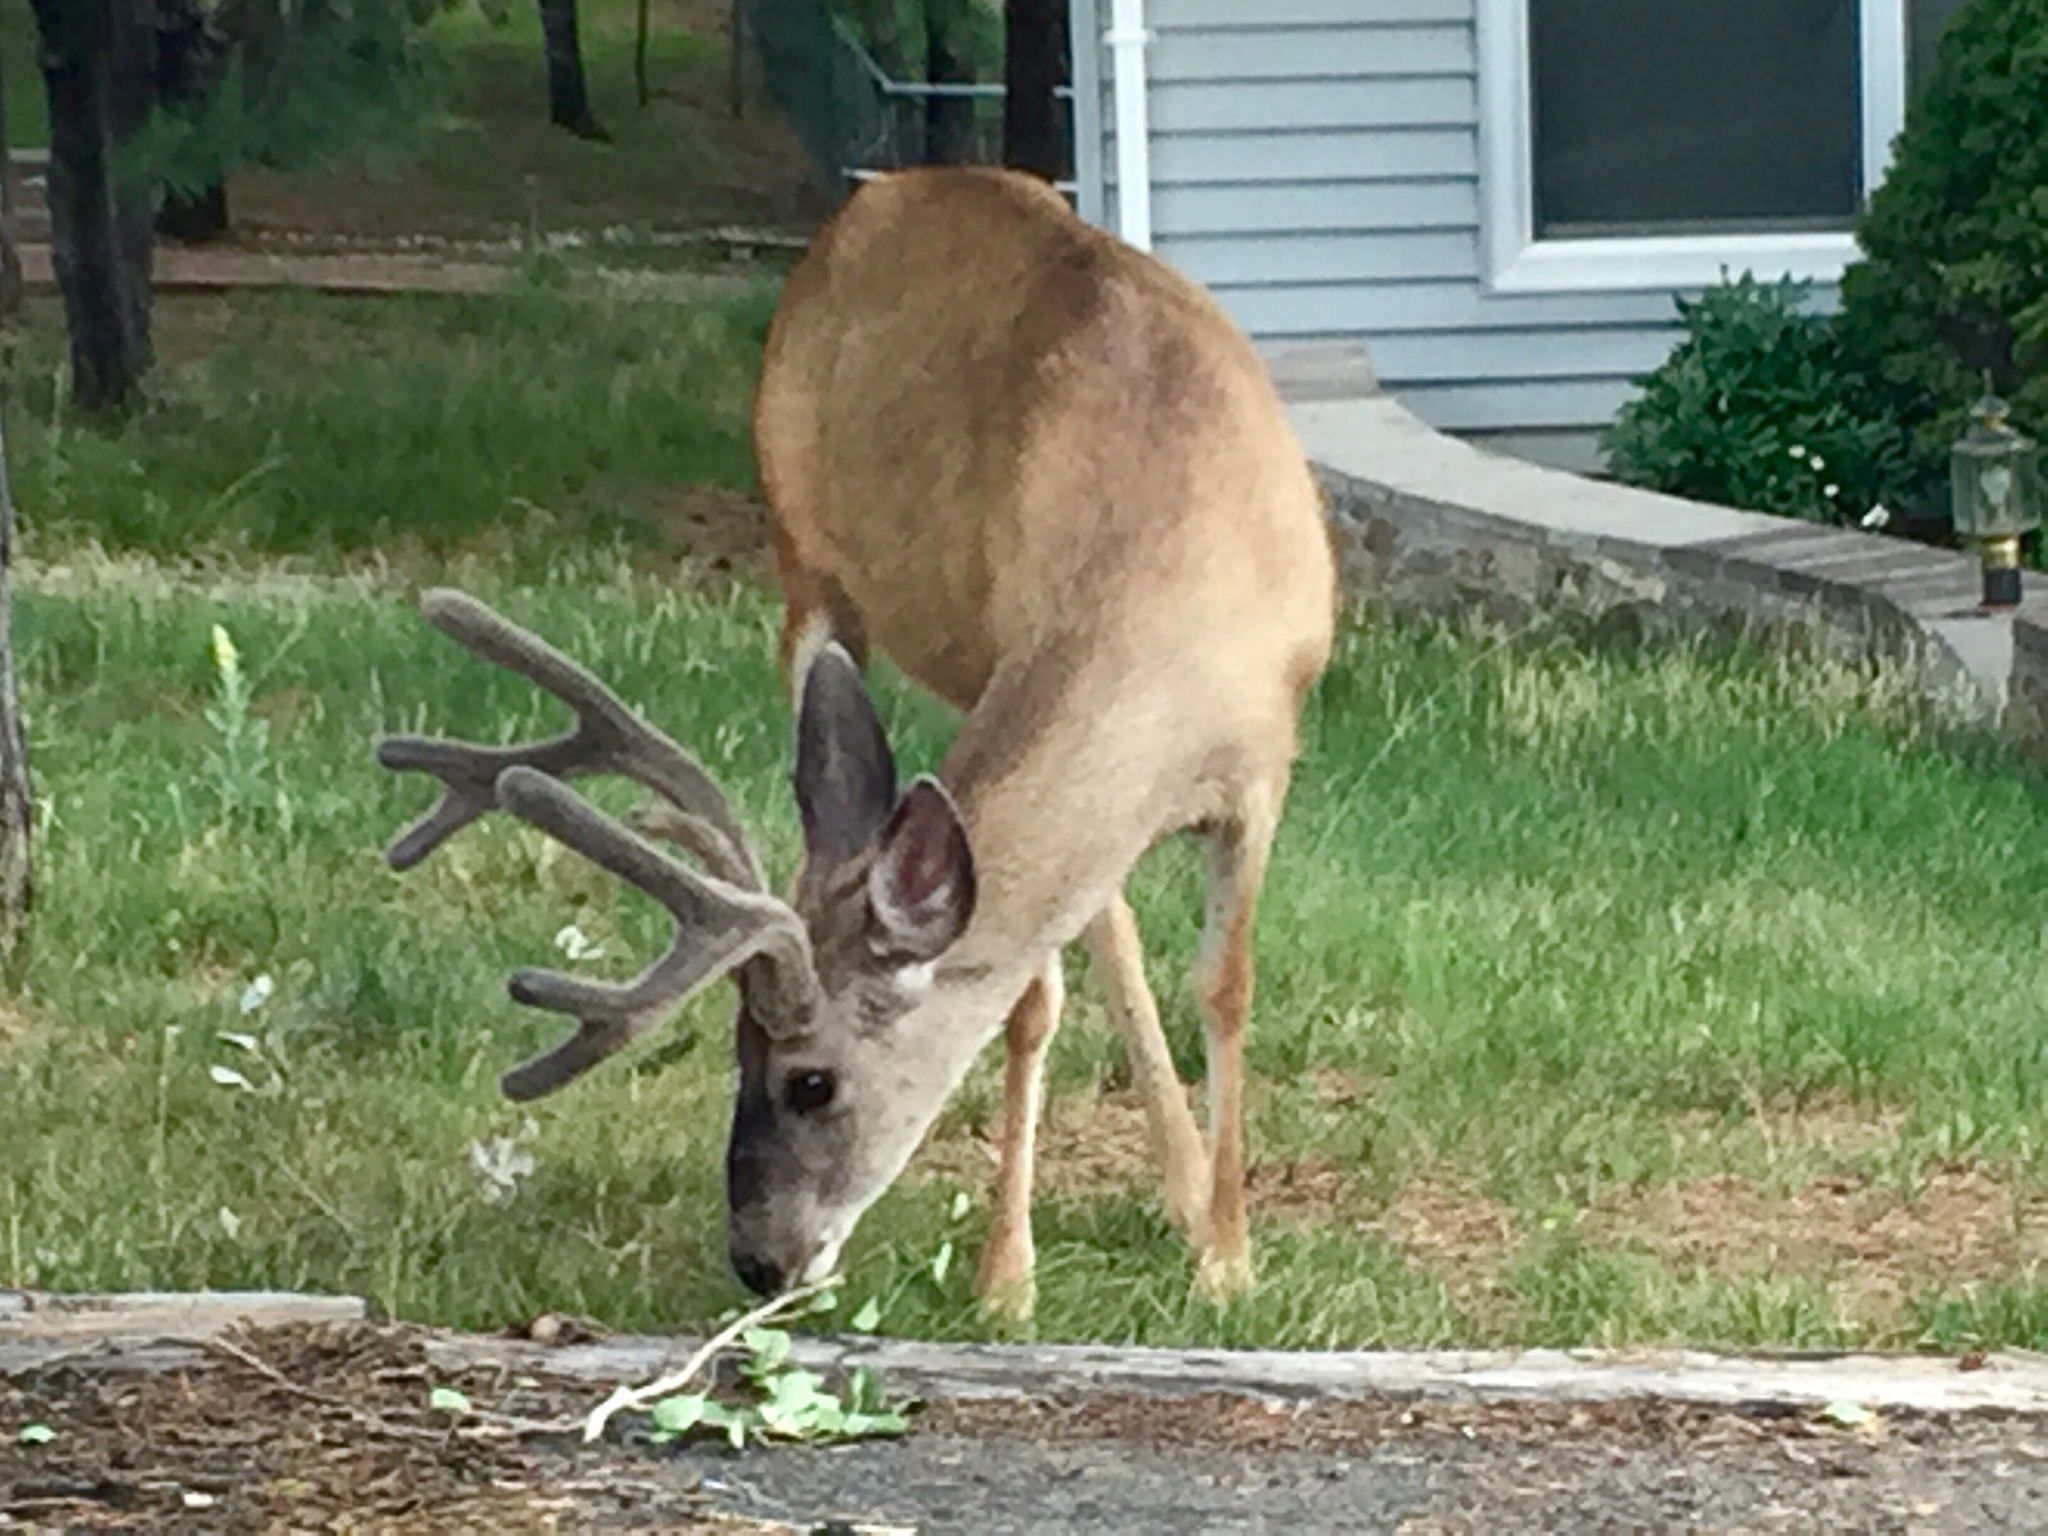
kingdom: Animalia
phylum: Chordata
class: Mammalia
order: Artiodactyla
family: Cervidae
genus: Odocoileus
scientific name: Odocoileus hemionus
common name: Mule deer
